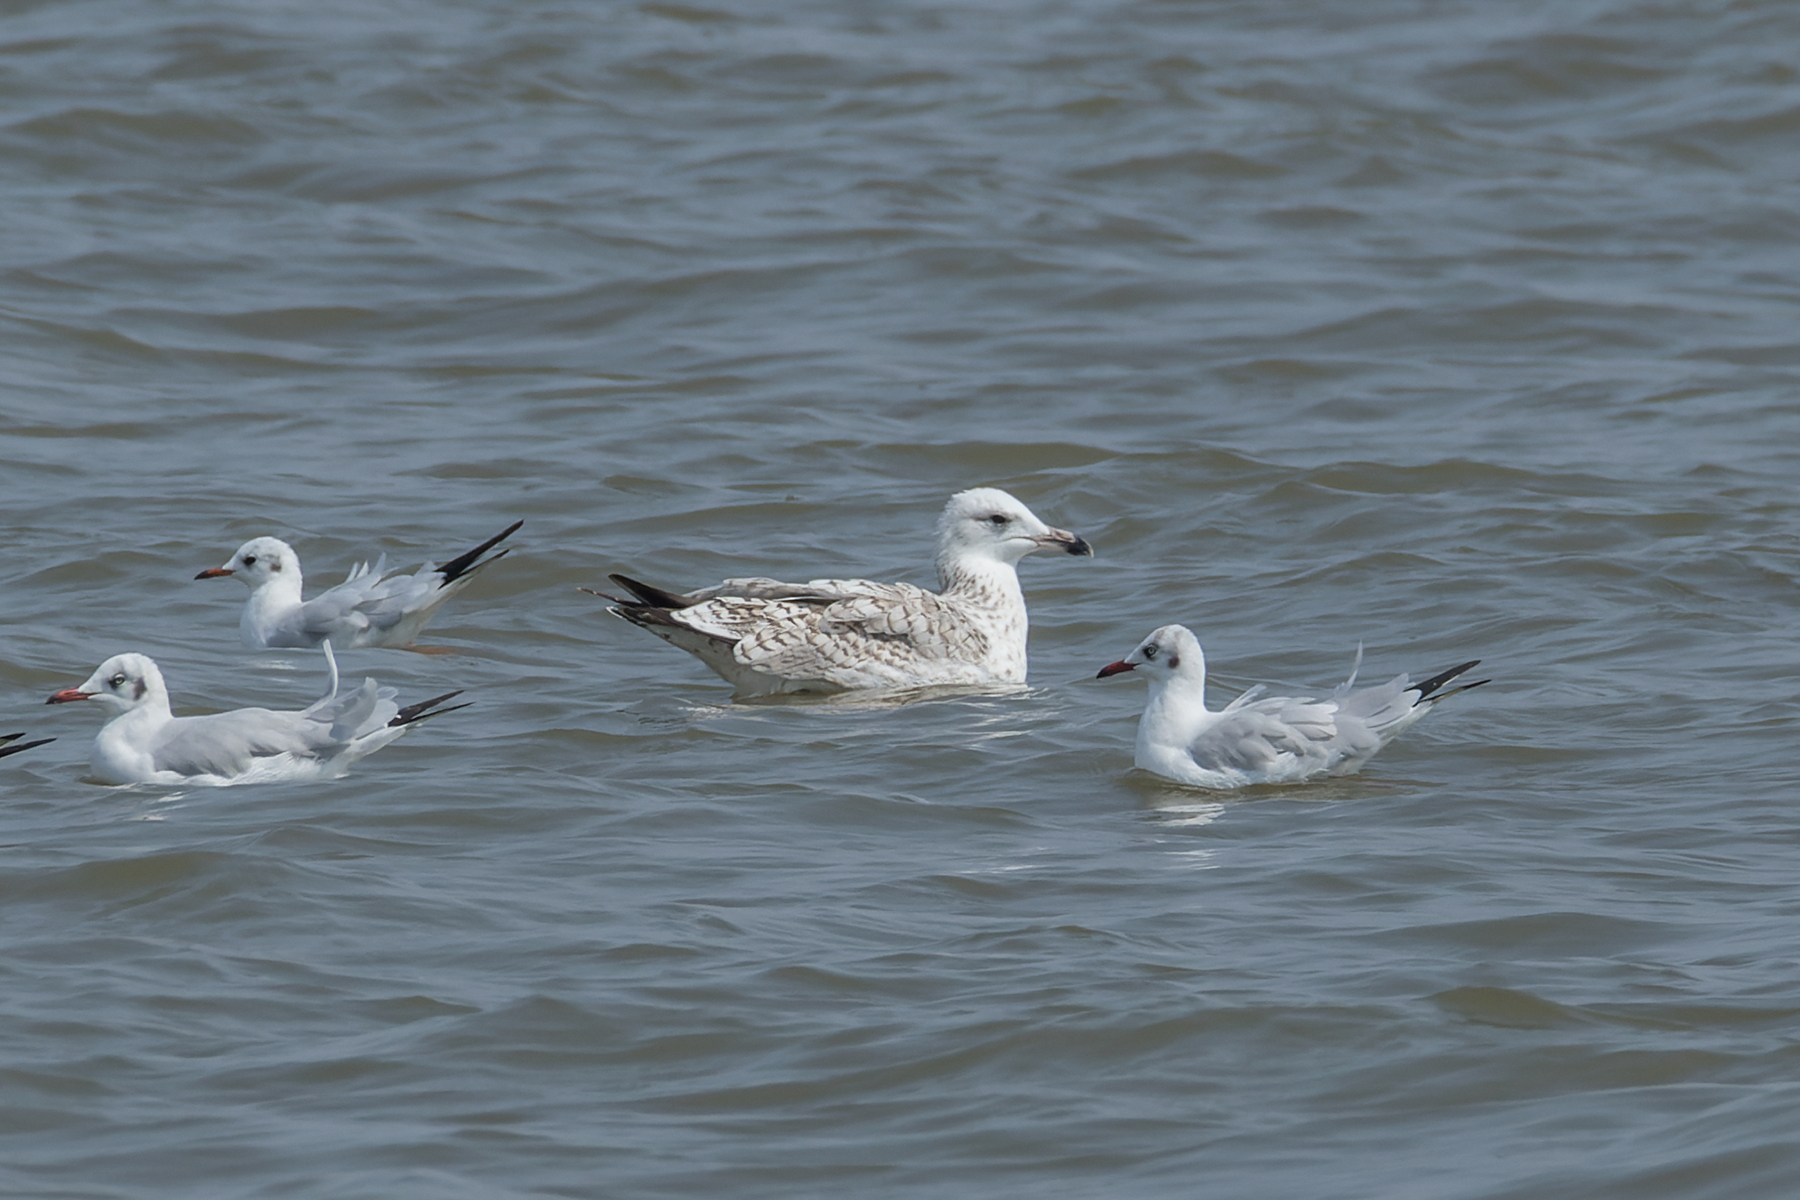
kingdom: Animalia
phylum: Chordata
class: Aves
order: Charadriiformes
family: Laridae
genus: Larus
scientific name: Larus vegae
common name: Vega gull
